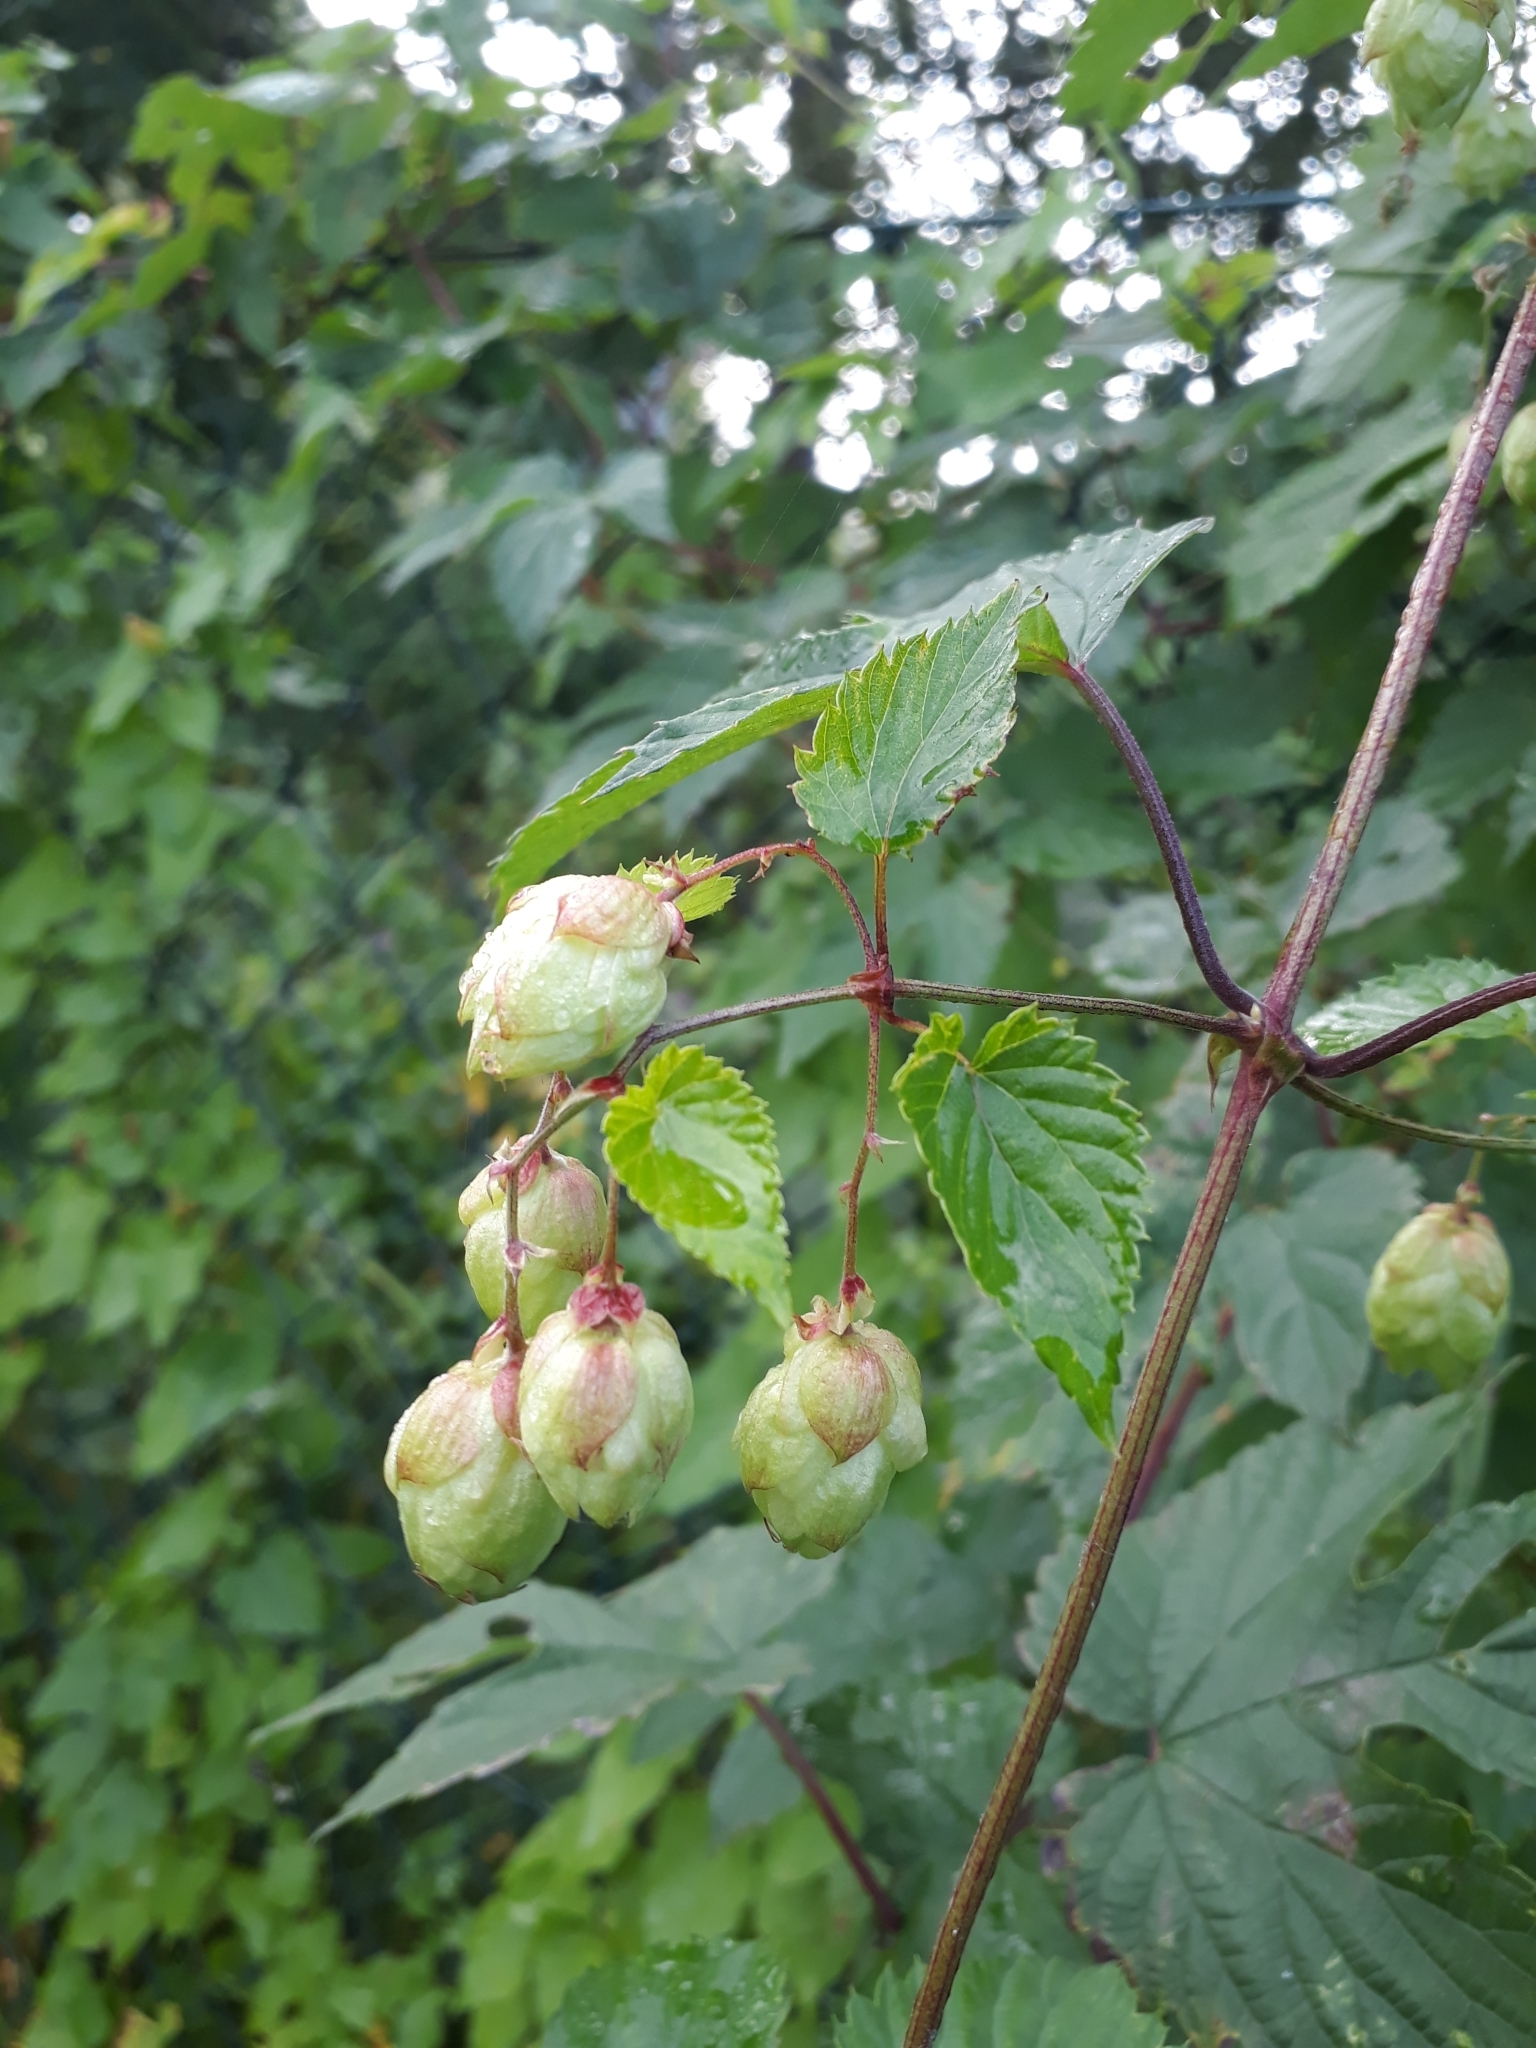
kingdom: Plantae
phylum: Tracheophyta
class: Magnoliopsida
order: Rosales
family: Cannabaceae
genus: Humulus
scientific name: Humulus lupulus
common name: Hop
